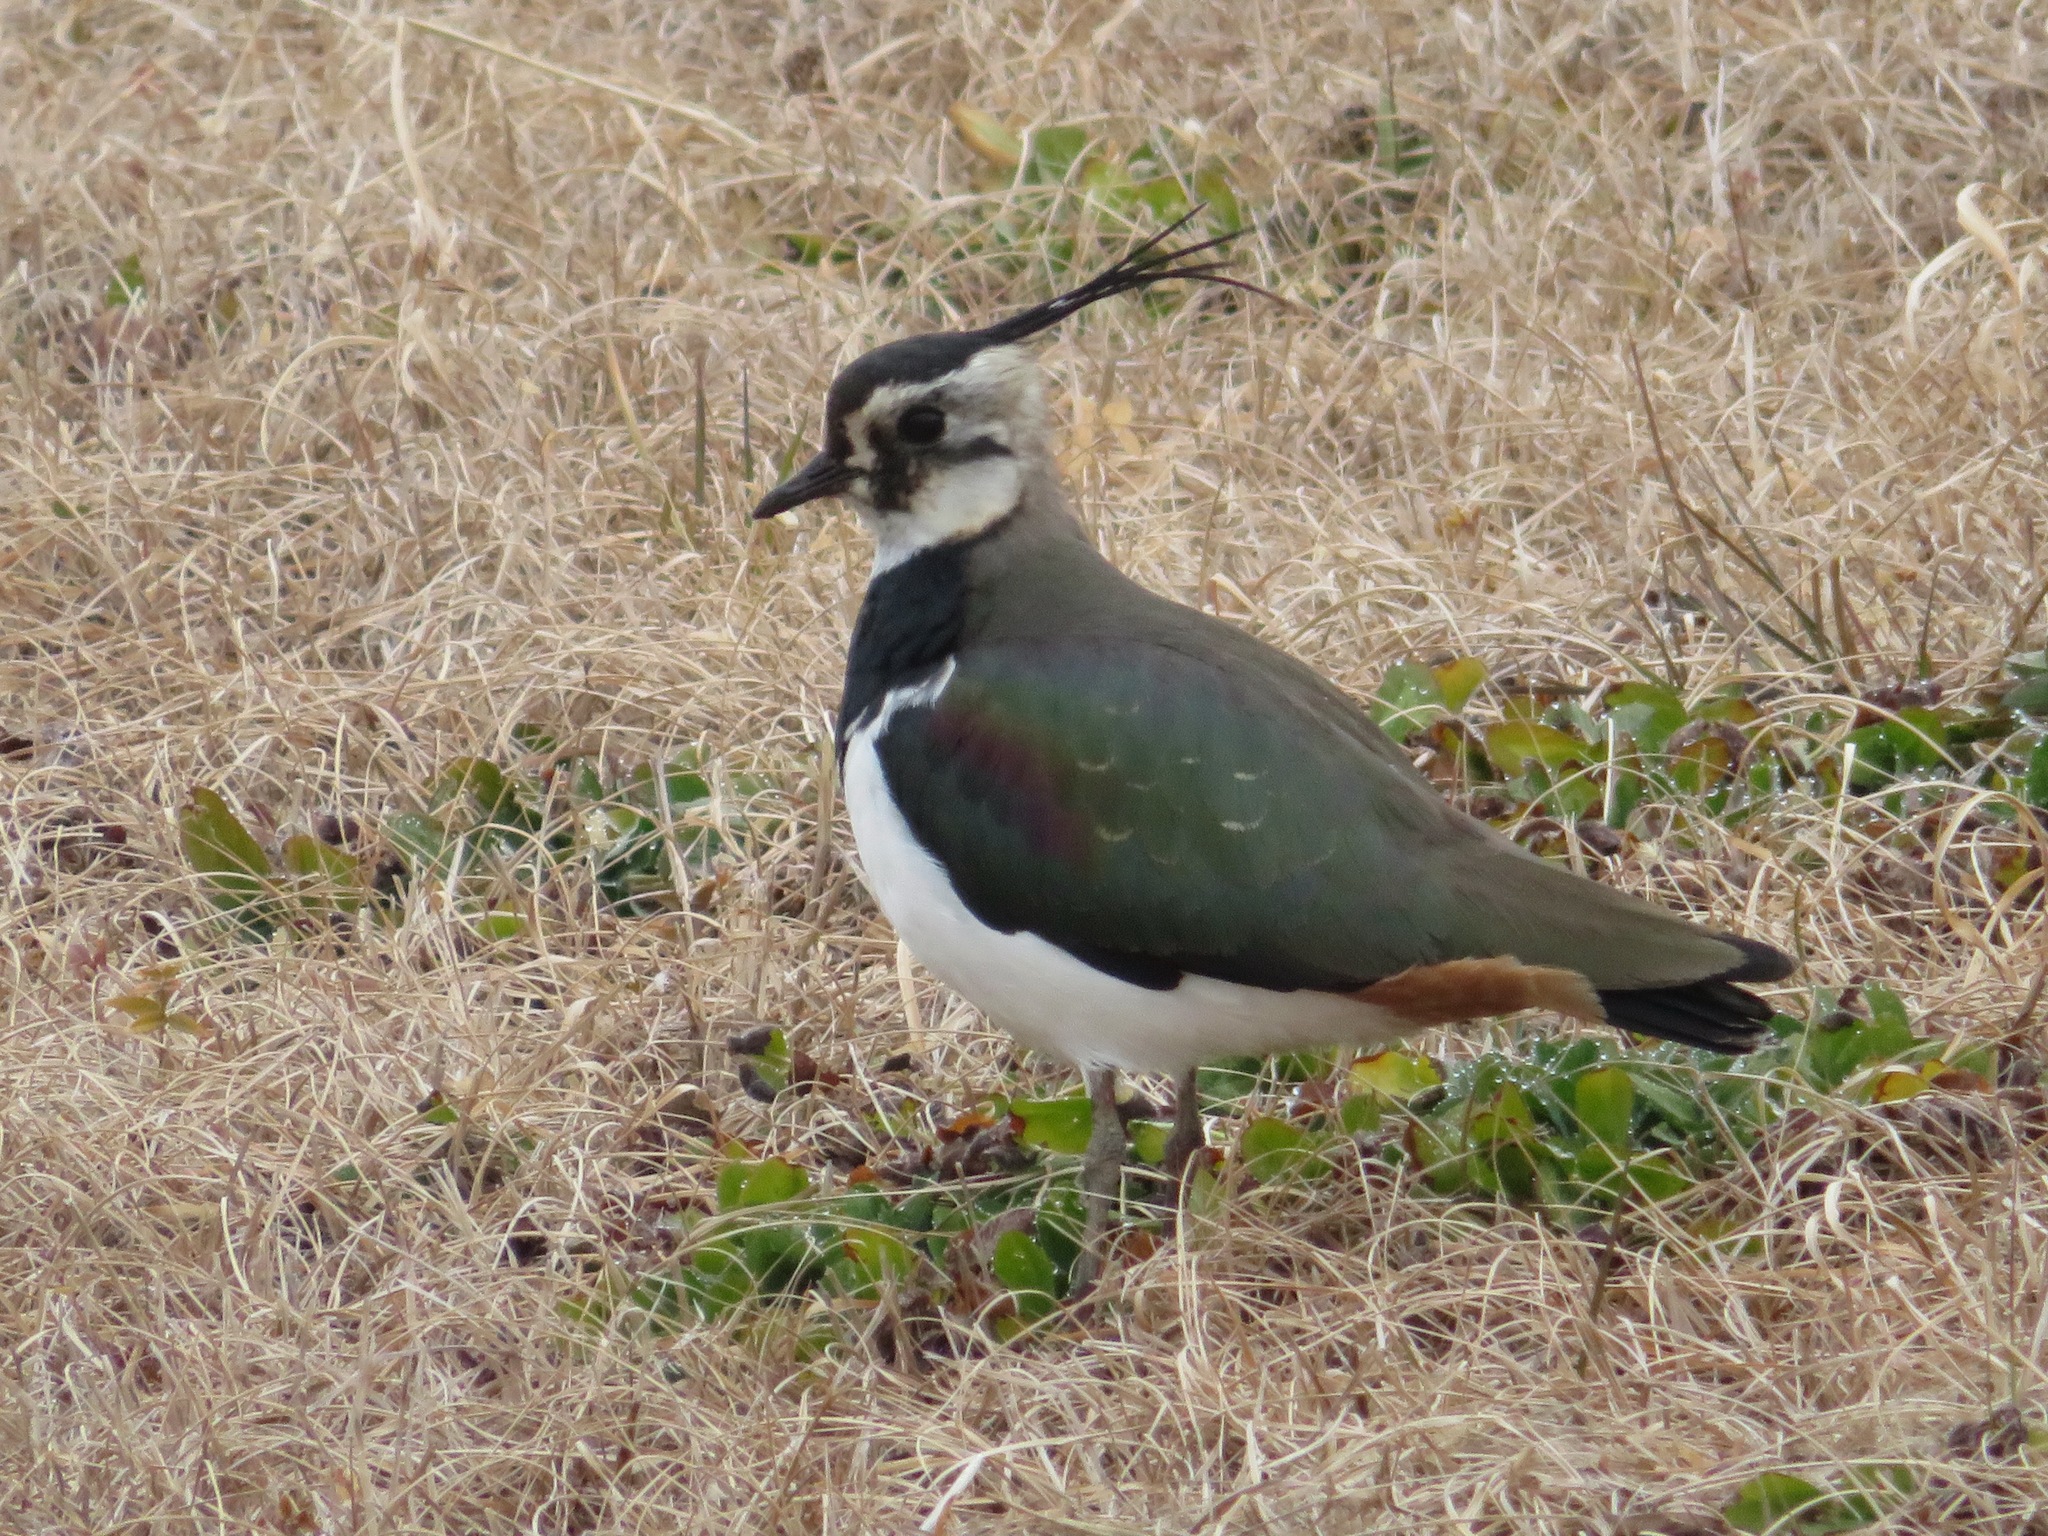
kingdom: Animalia
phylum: Chordata
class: Aves
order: Charadriiformes
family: Charadriidae
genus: Vanellus
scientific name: Vanellus vanellus
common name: Northern lapwing
